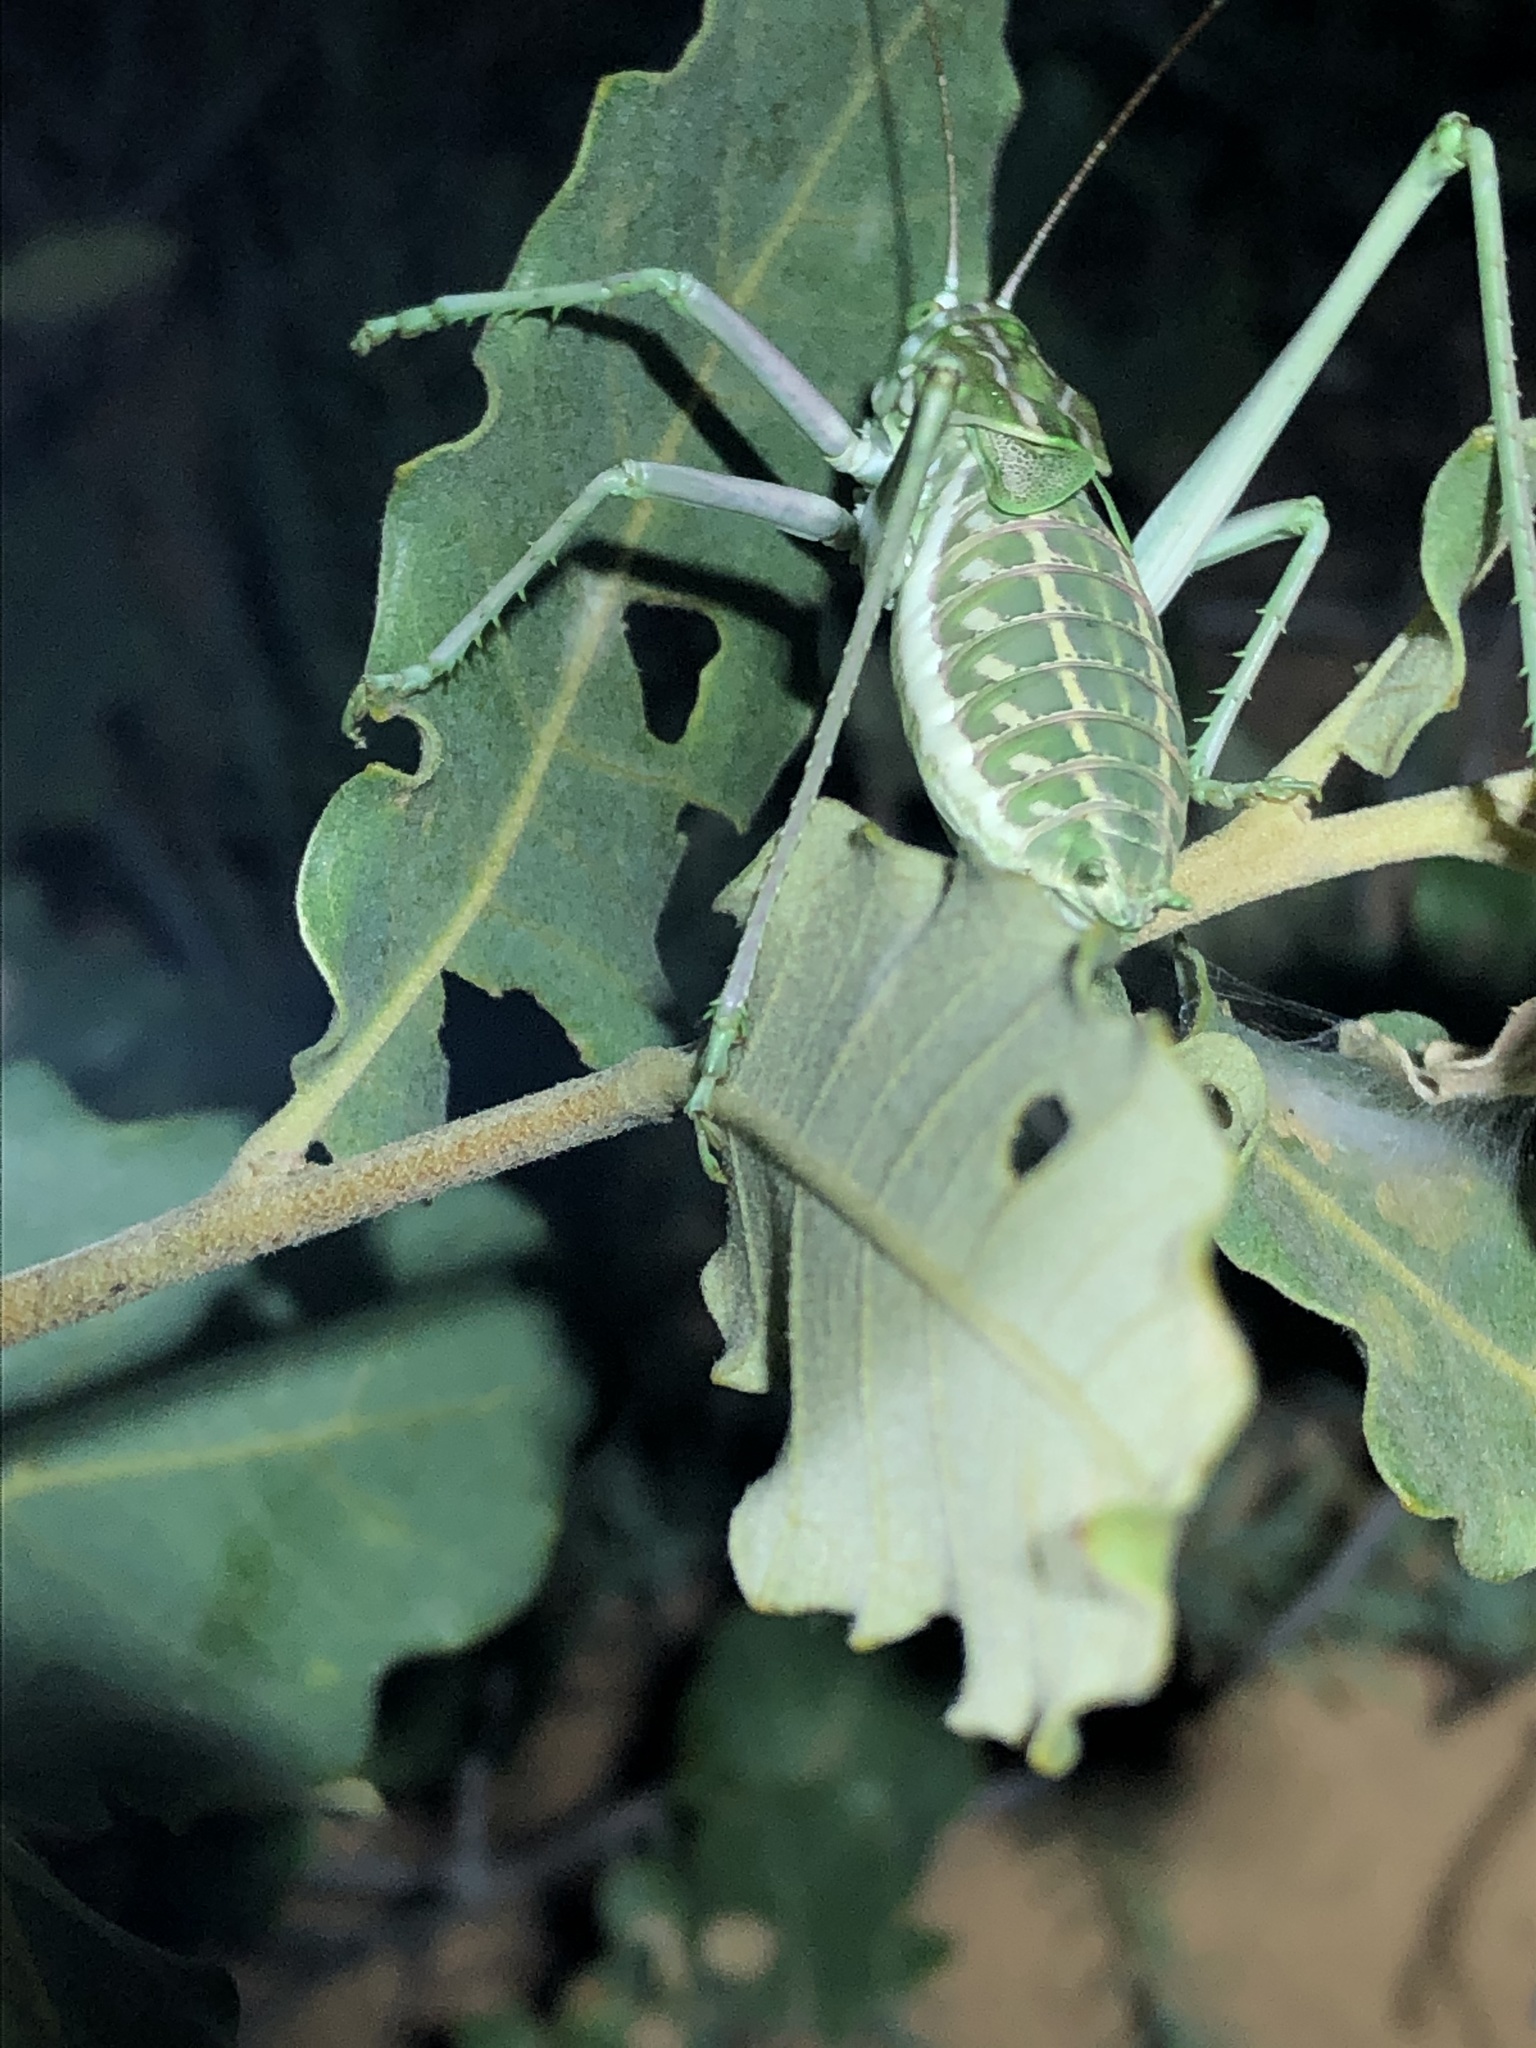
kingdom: Animalia
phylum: Arthropoda
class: Insecta
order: Orthoptera
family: Tettigoniidae
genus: Plagiostira
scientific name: Plagiostira mescaleroensis
